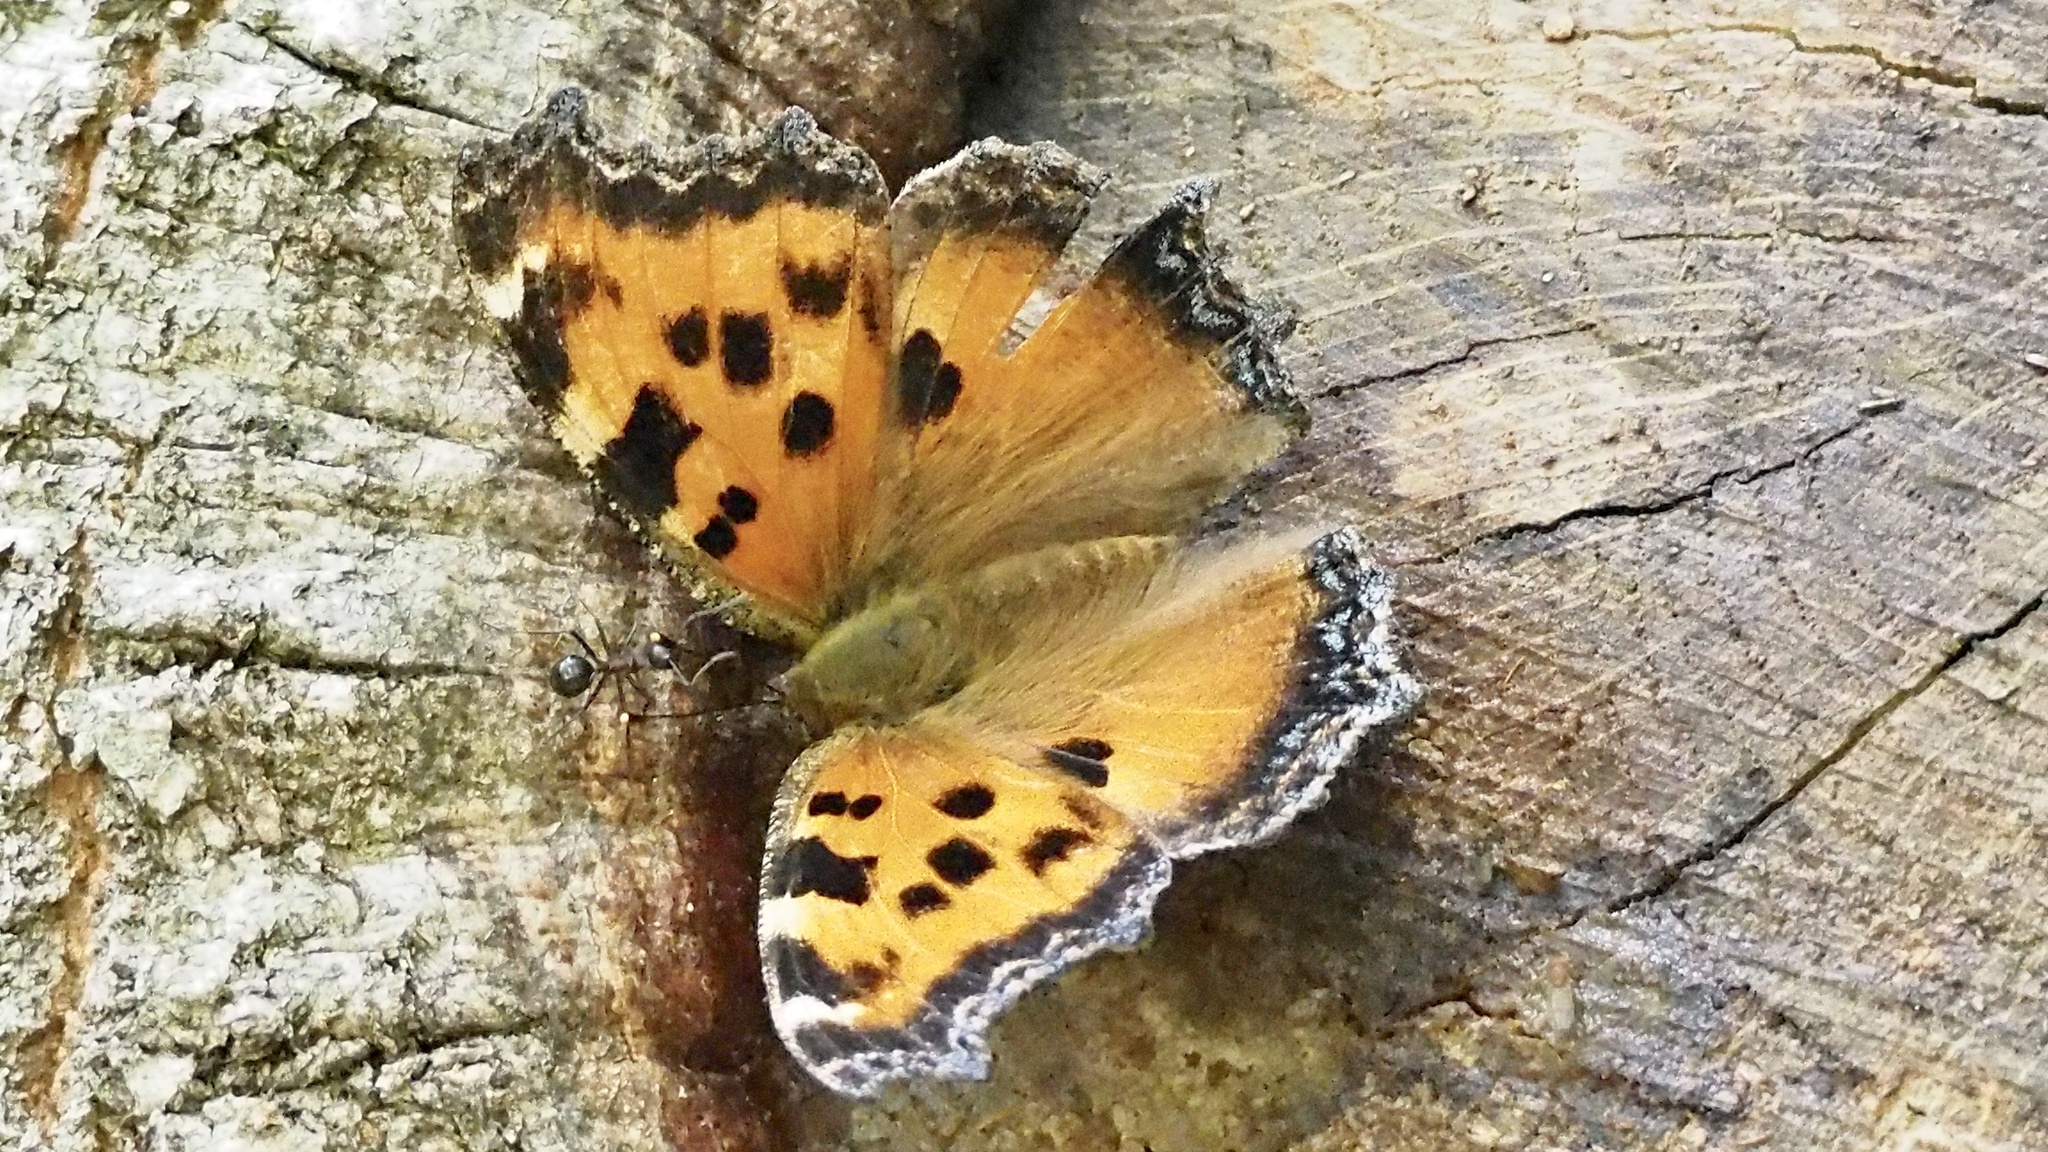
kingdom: Animalia
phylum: Arthropoda
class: Insecta
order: Lepidoptera
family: Nymphalidae
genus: Nymphalis
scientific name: Nymphalis xanthomelas
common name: Scarce tortoiseshell
